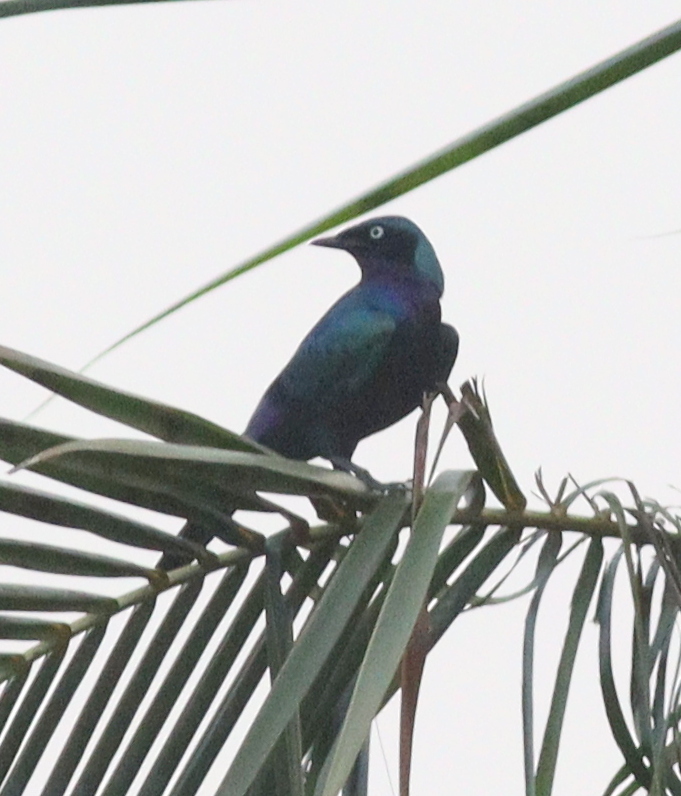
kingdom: Animalia
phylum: Chordata
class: Aves
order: Passeriformes
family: Sturnidae
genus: Lamprotornis
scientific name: Lamprotornis splendidus
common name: Splendid starling
